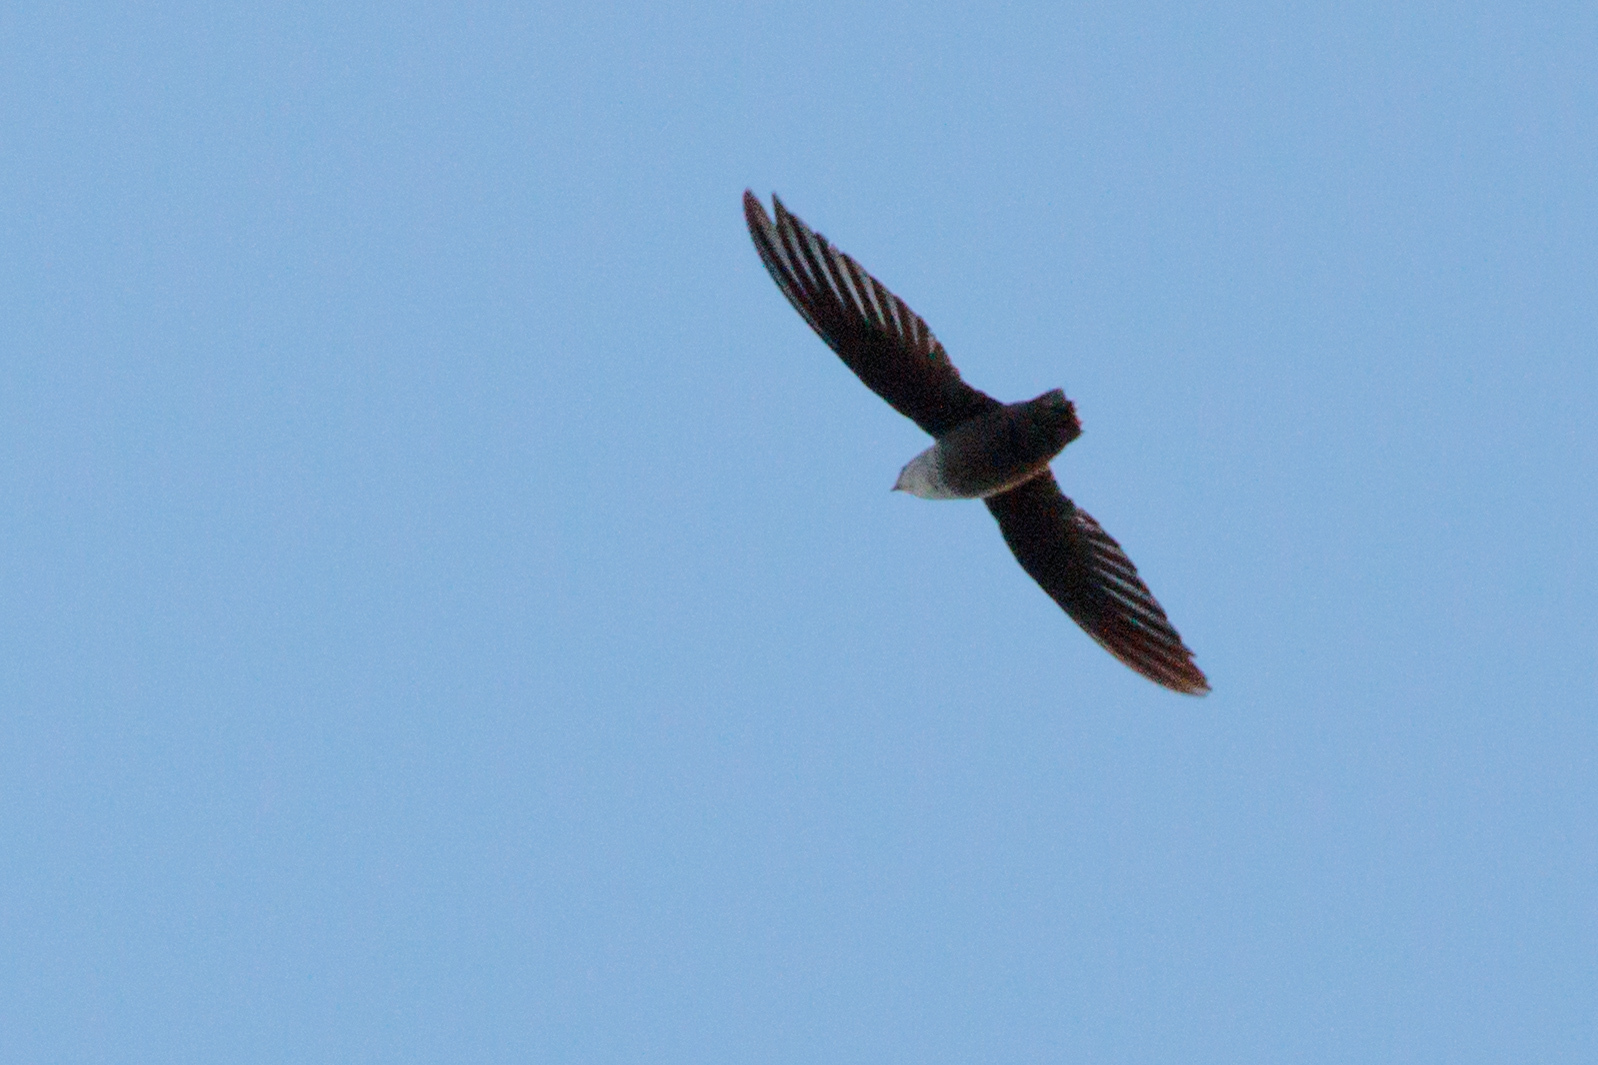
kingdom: Animalia
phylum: Chordata
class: Aves
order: Apodiformes
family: Apodidae
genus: Chaetura
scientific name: Chaetura pelagica
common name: Chimney swift
